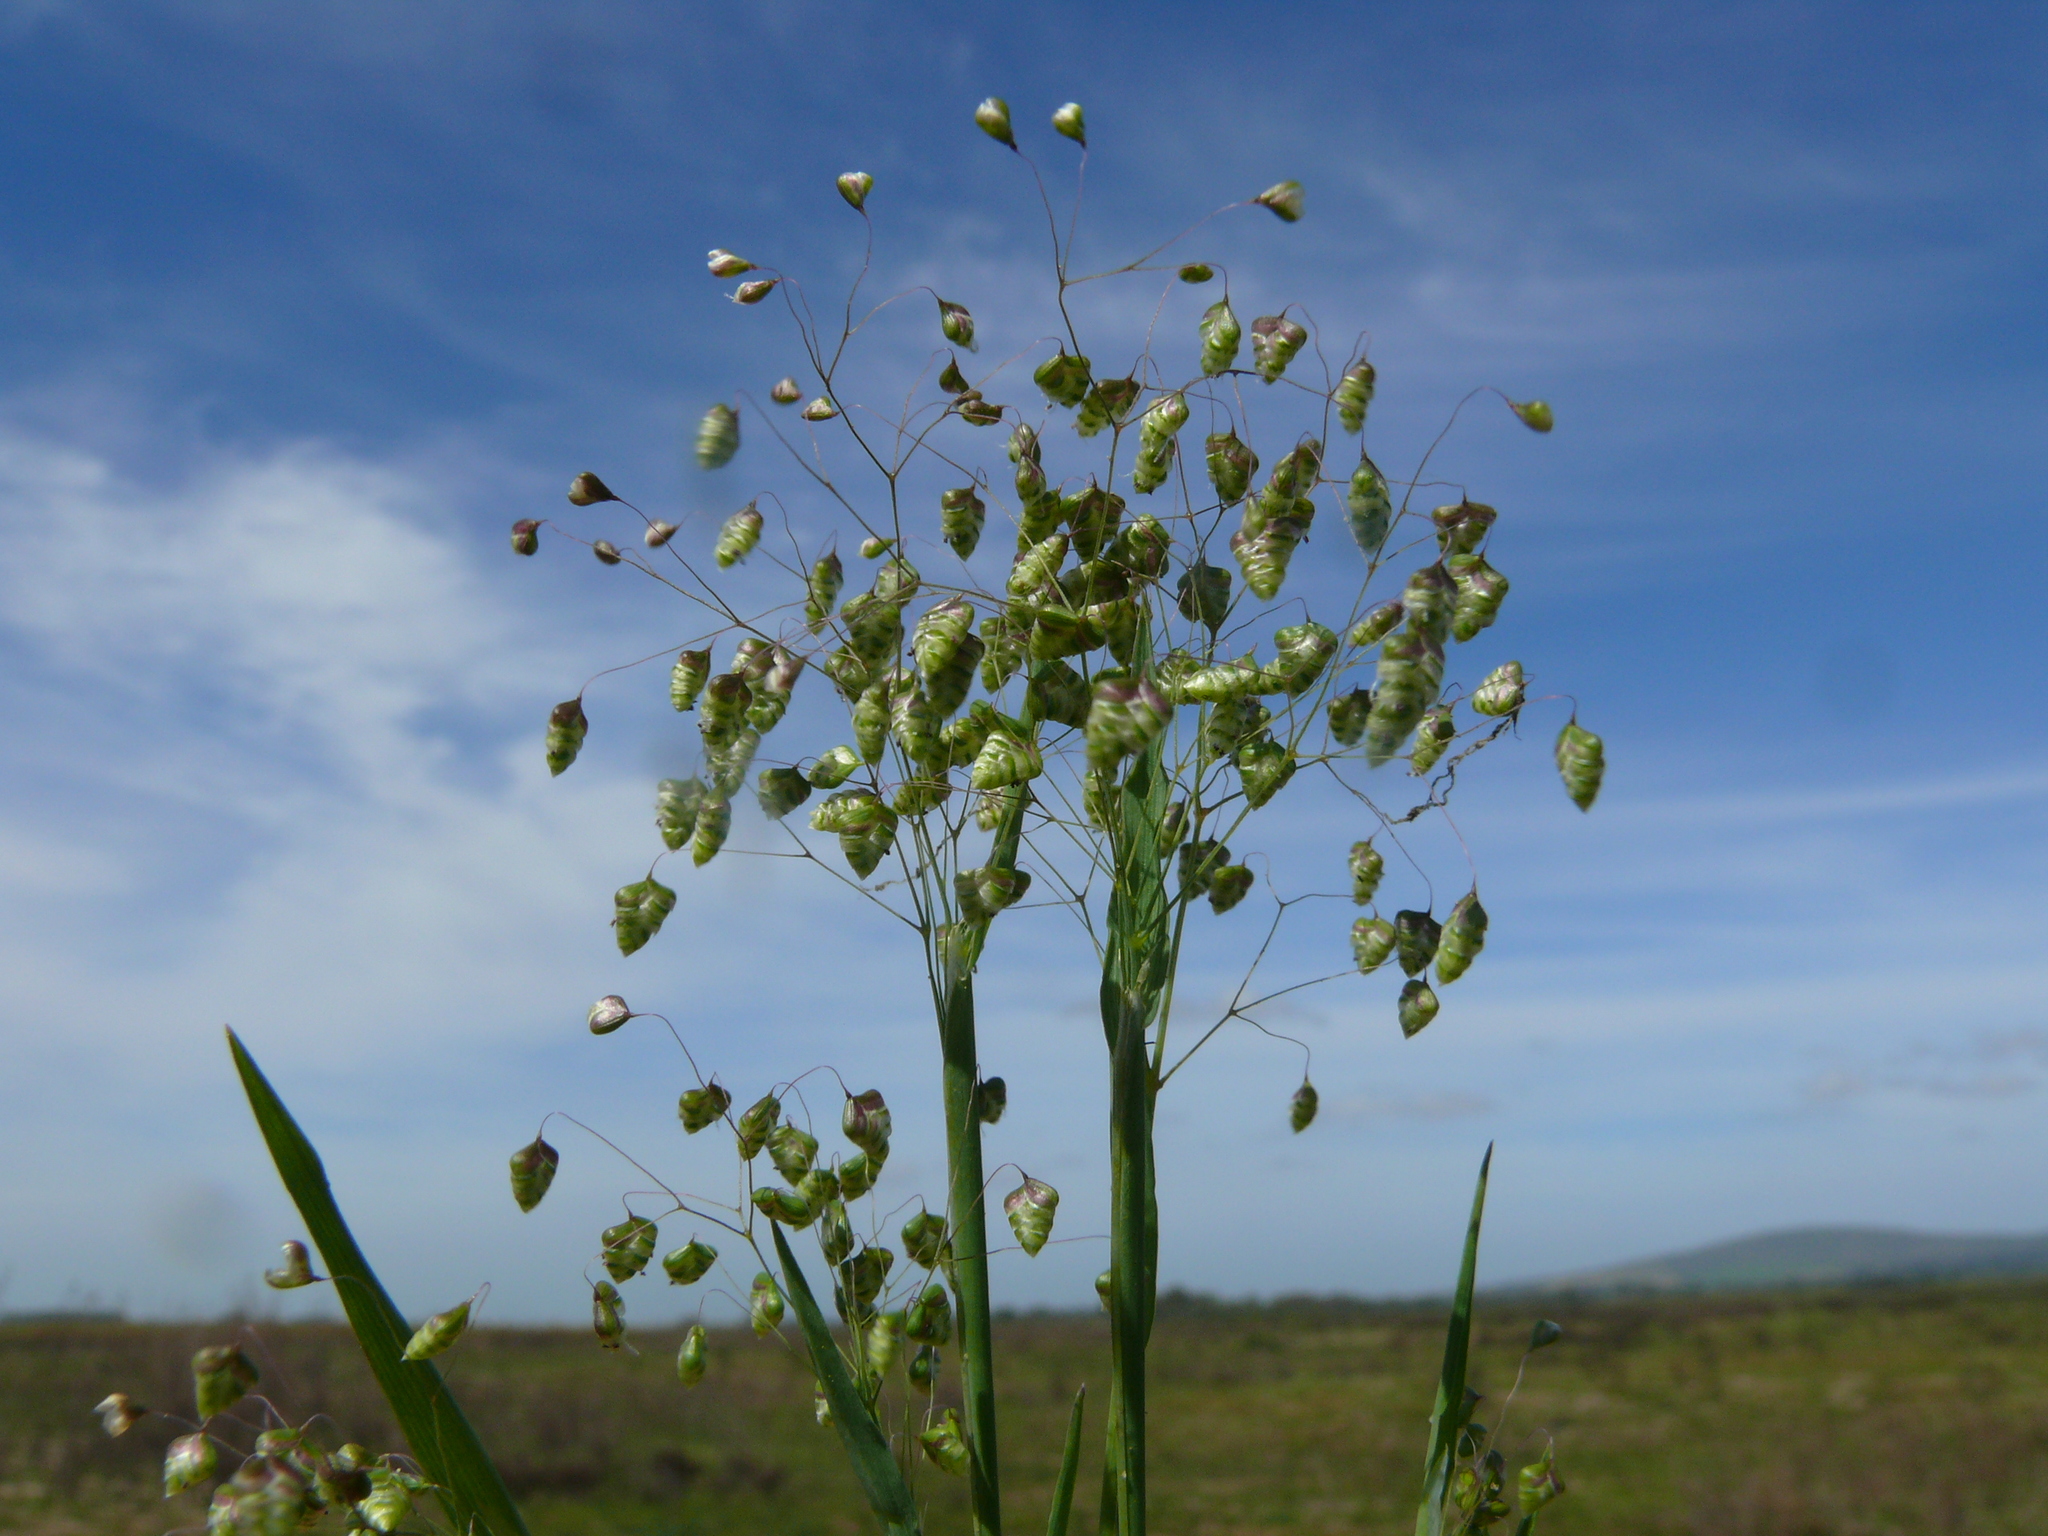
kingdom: Plantae
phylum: Tracheophyta
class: Liliopsida
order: Poales
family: Poaceae
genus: Briza
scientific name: Briza minor
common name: Lesser quaking-grass
